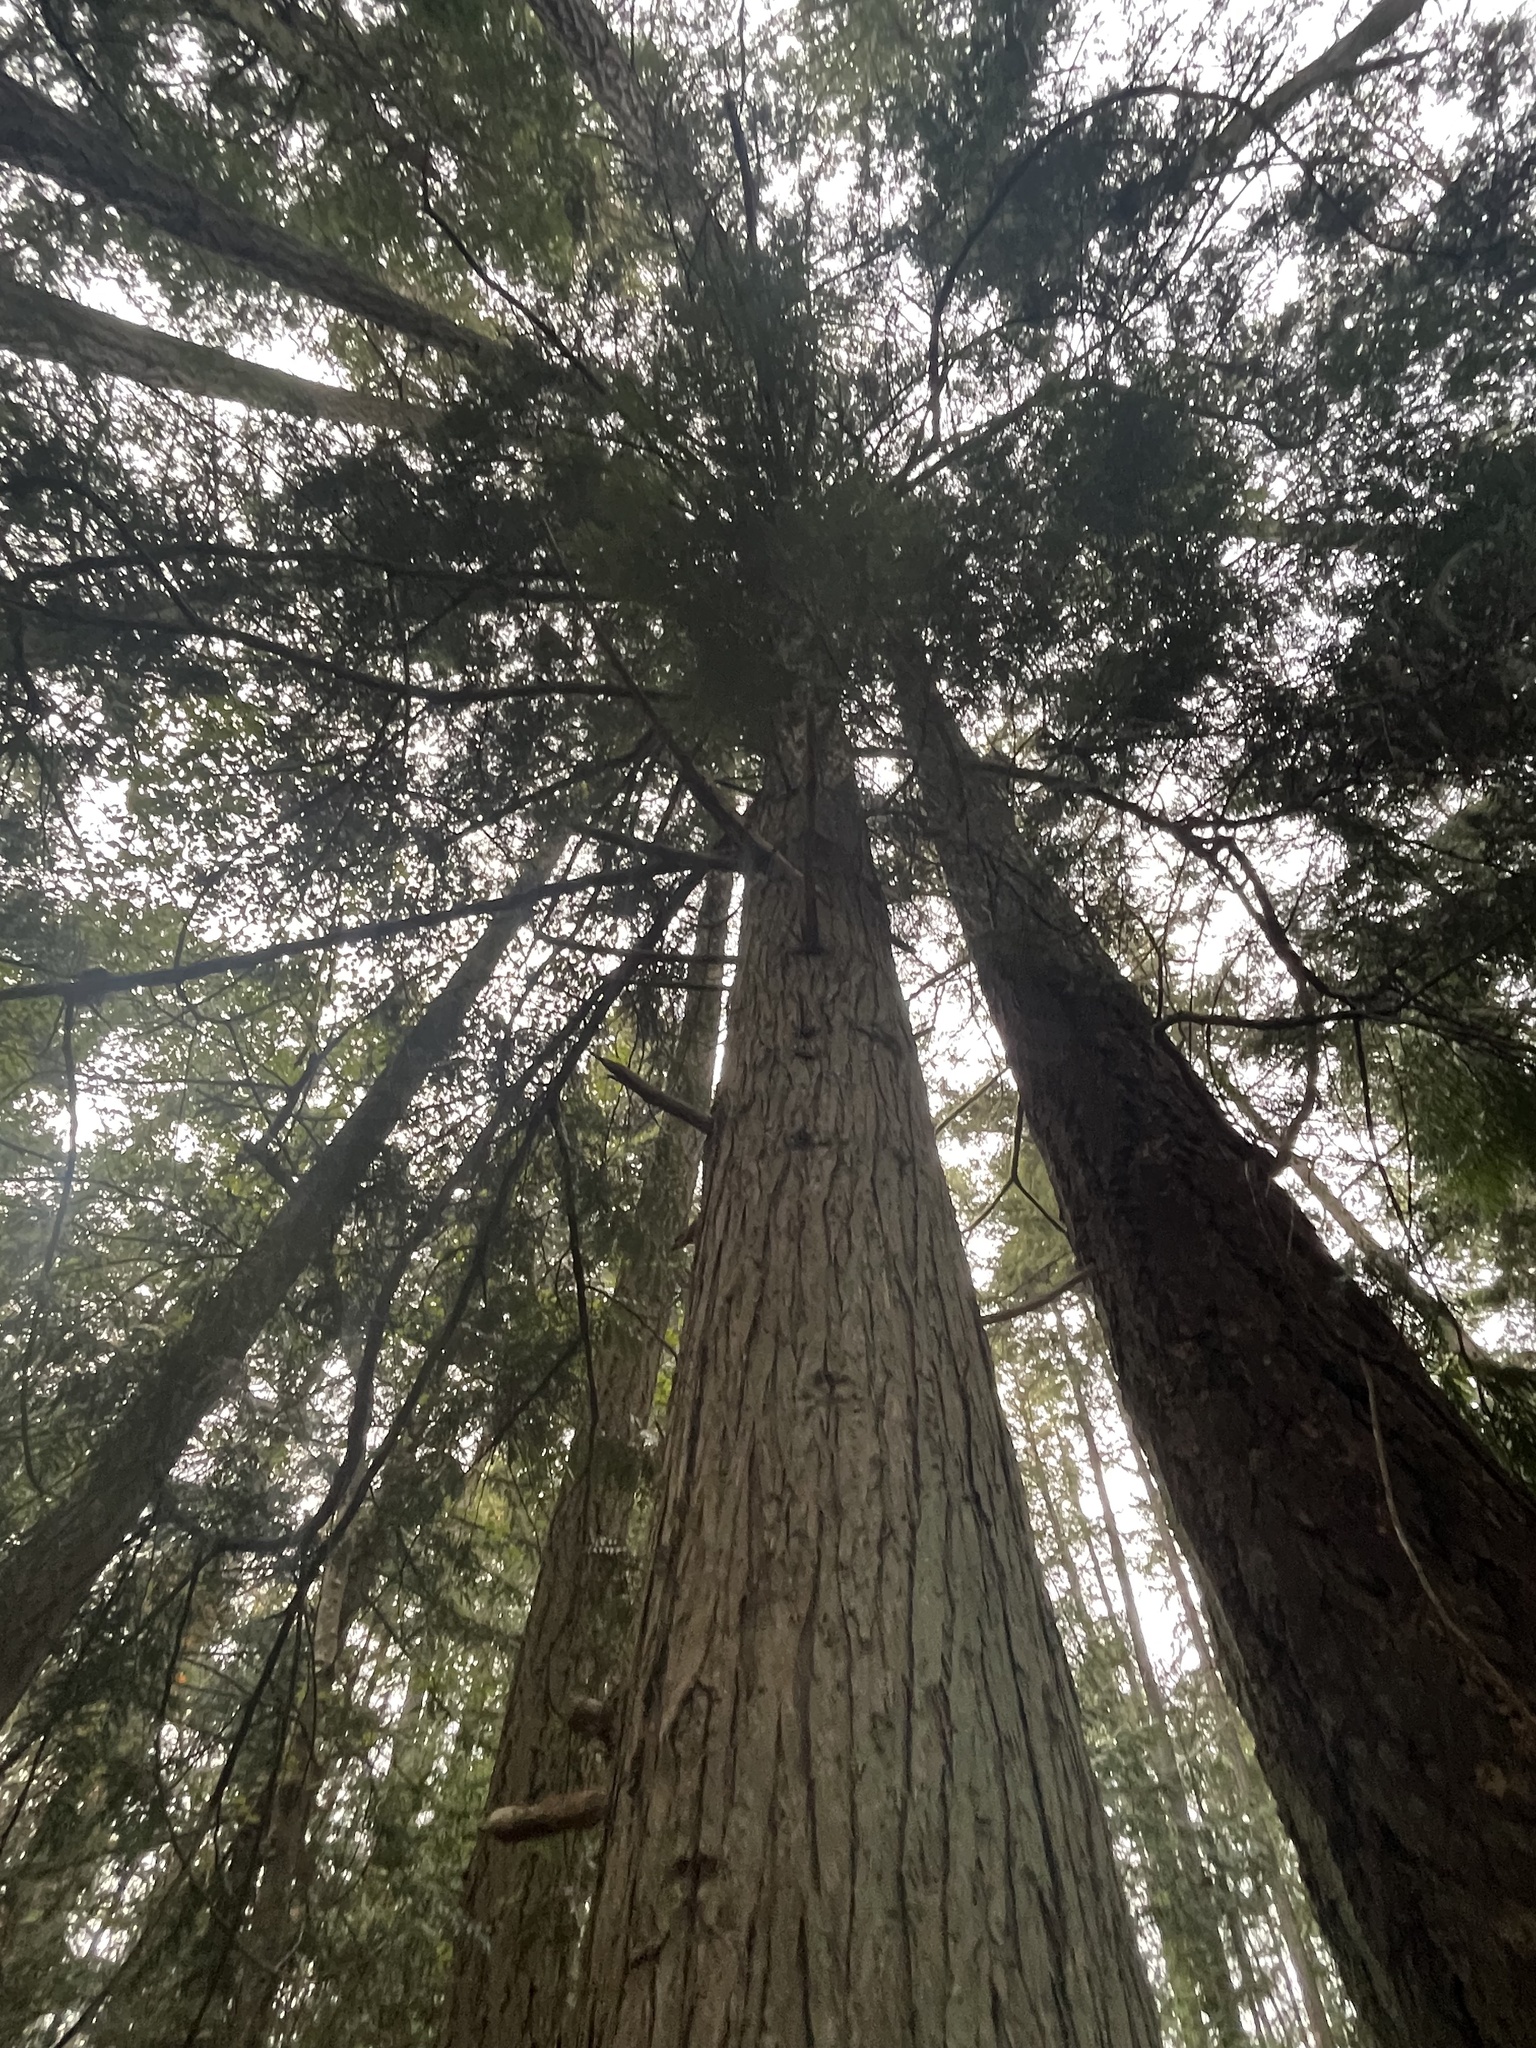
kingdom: Plantae
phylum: Tracheophyta
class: Pinopsida
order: Pinales
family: Cupressaceae
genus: Thuja
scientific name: Thuja plicata
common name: Western red-cedar
